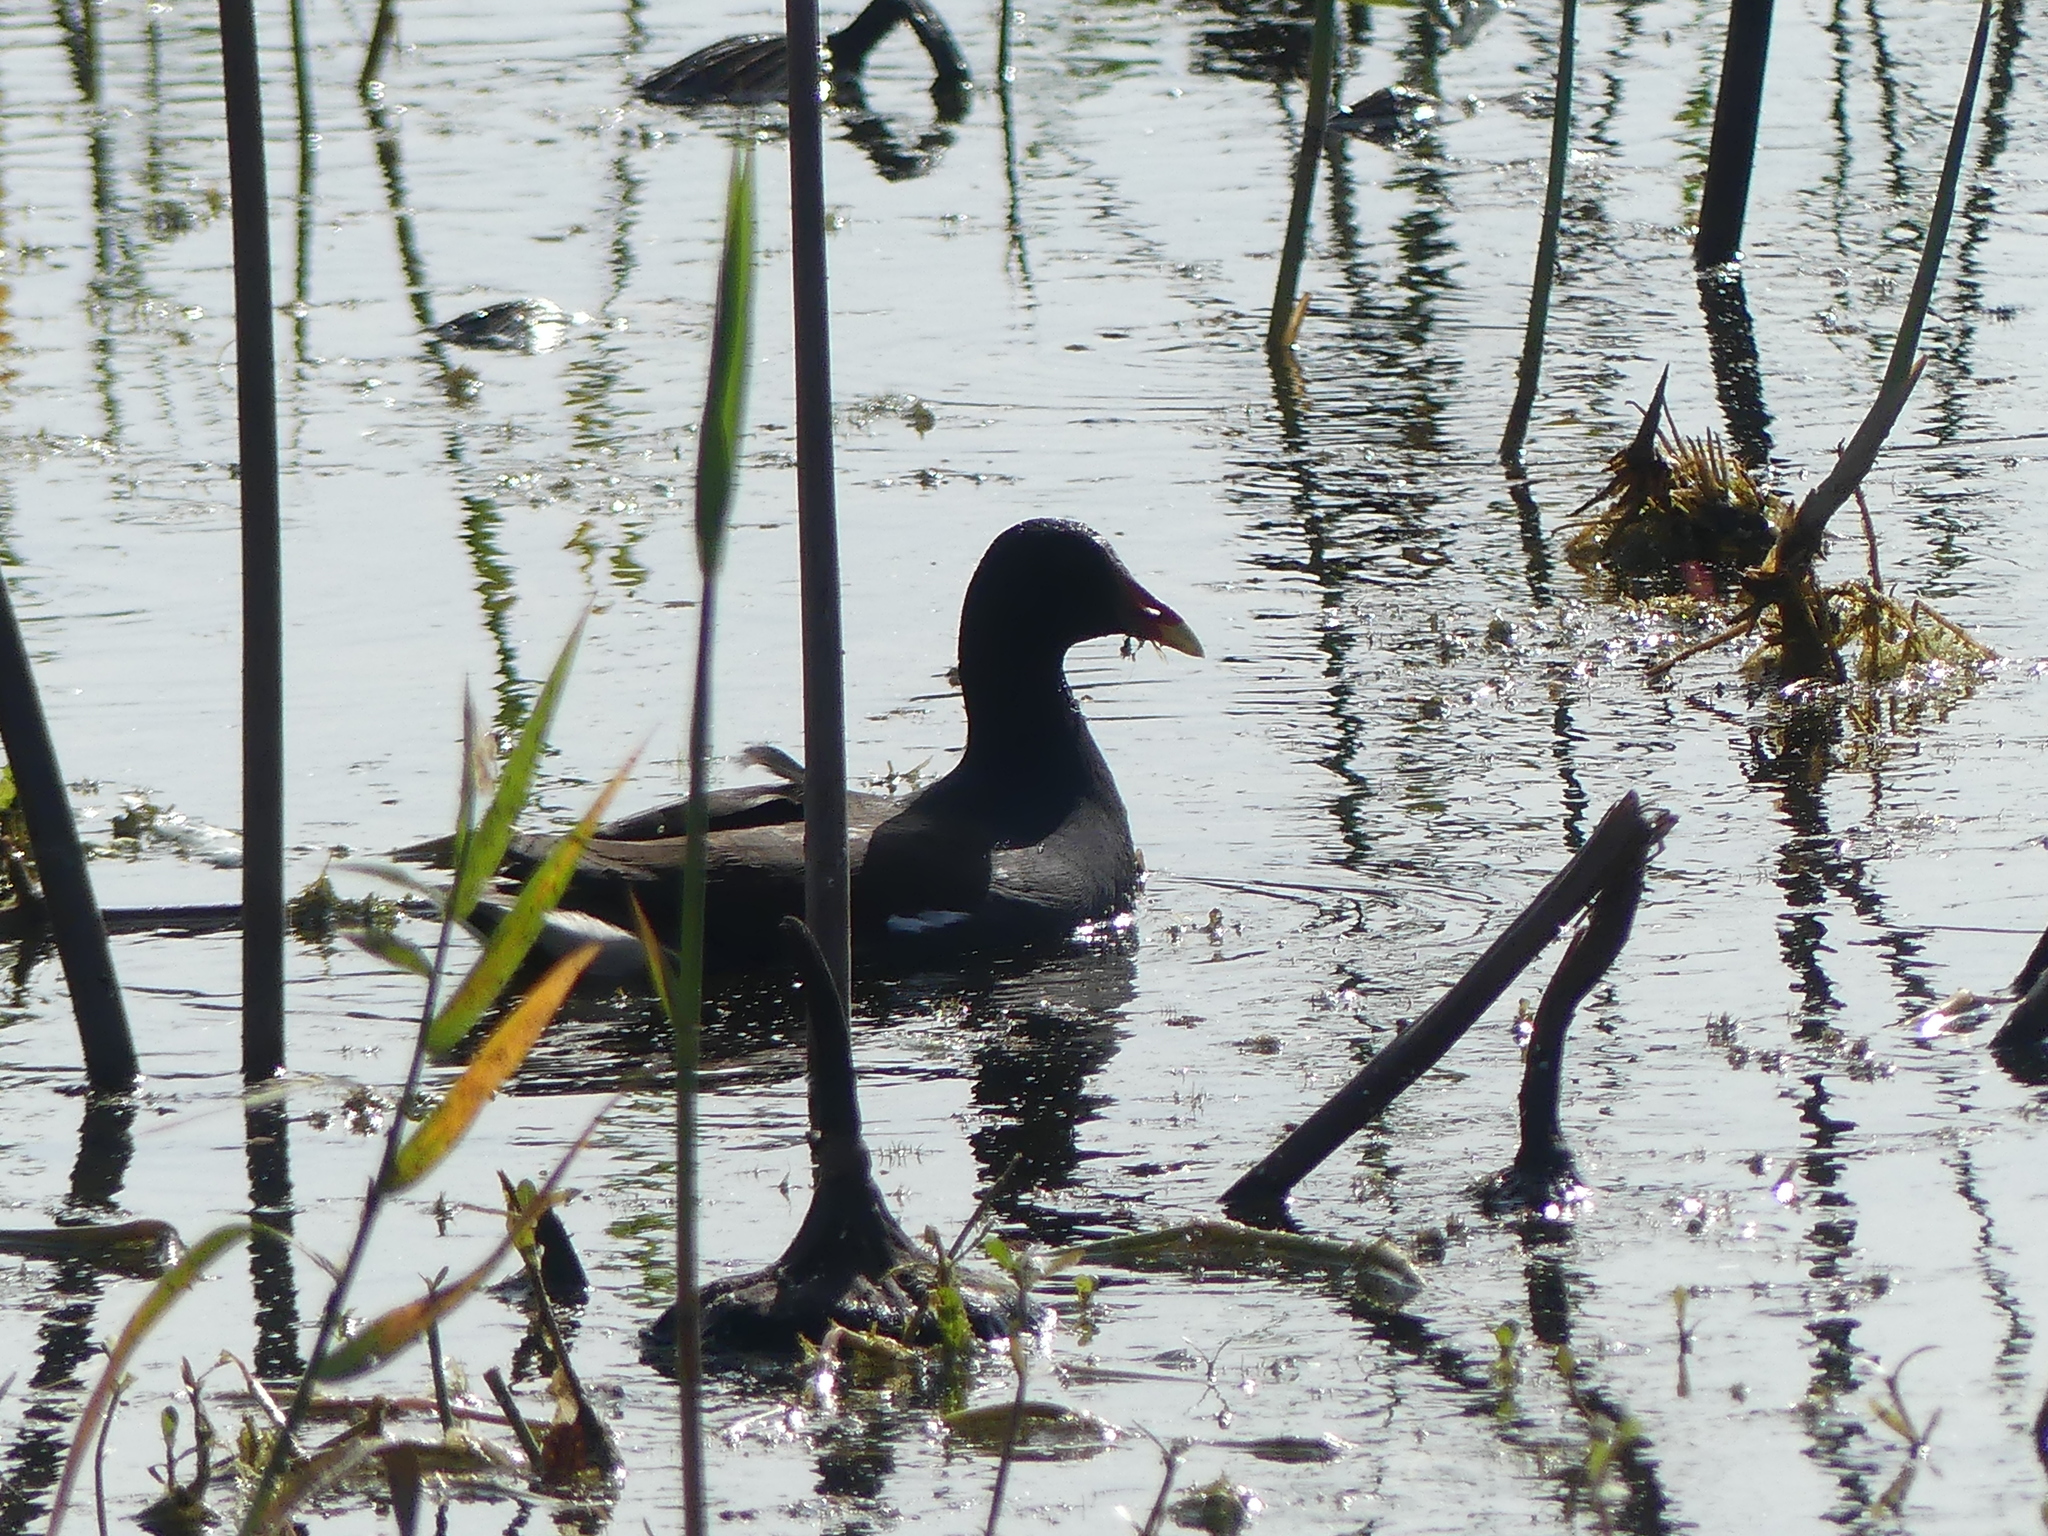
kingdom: Animalia
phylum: Chordata
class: Aves
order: Gruiformes
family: Rallidae
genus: Gallinula
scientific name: Gallinula chloropus
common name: Common moorhen
